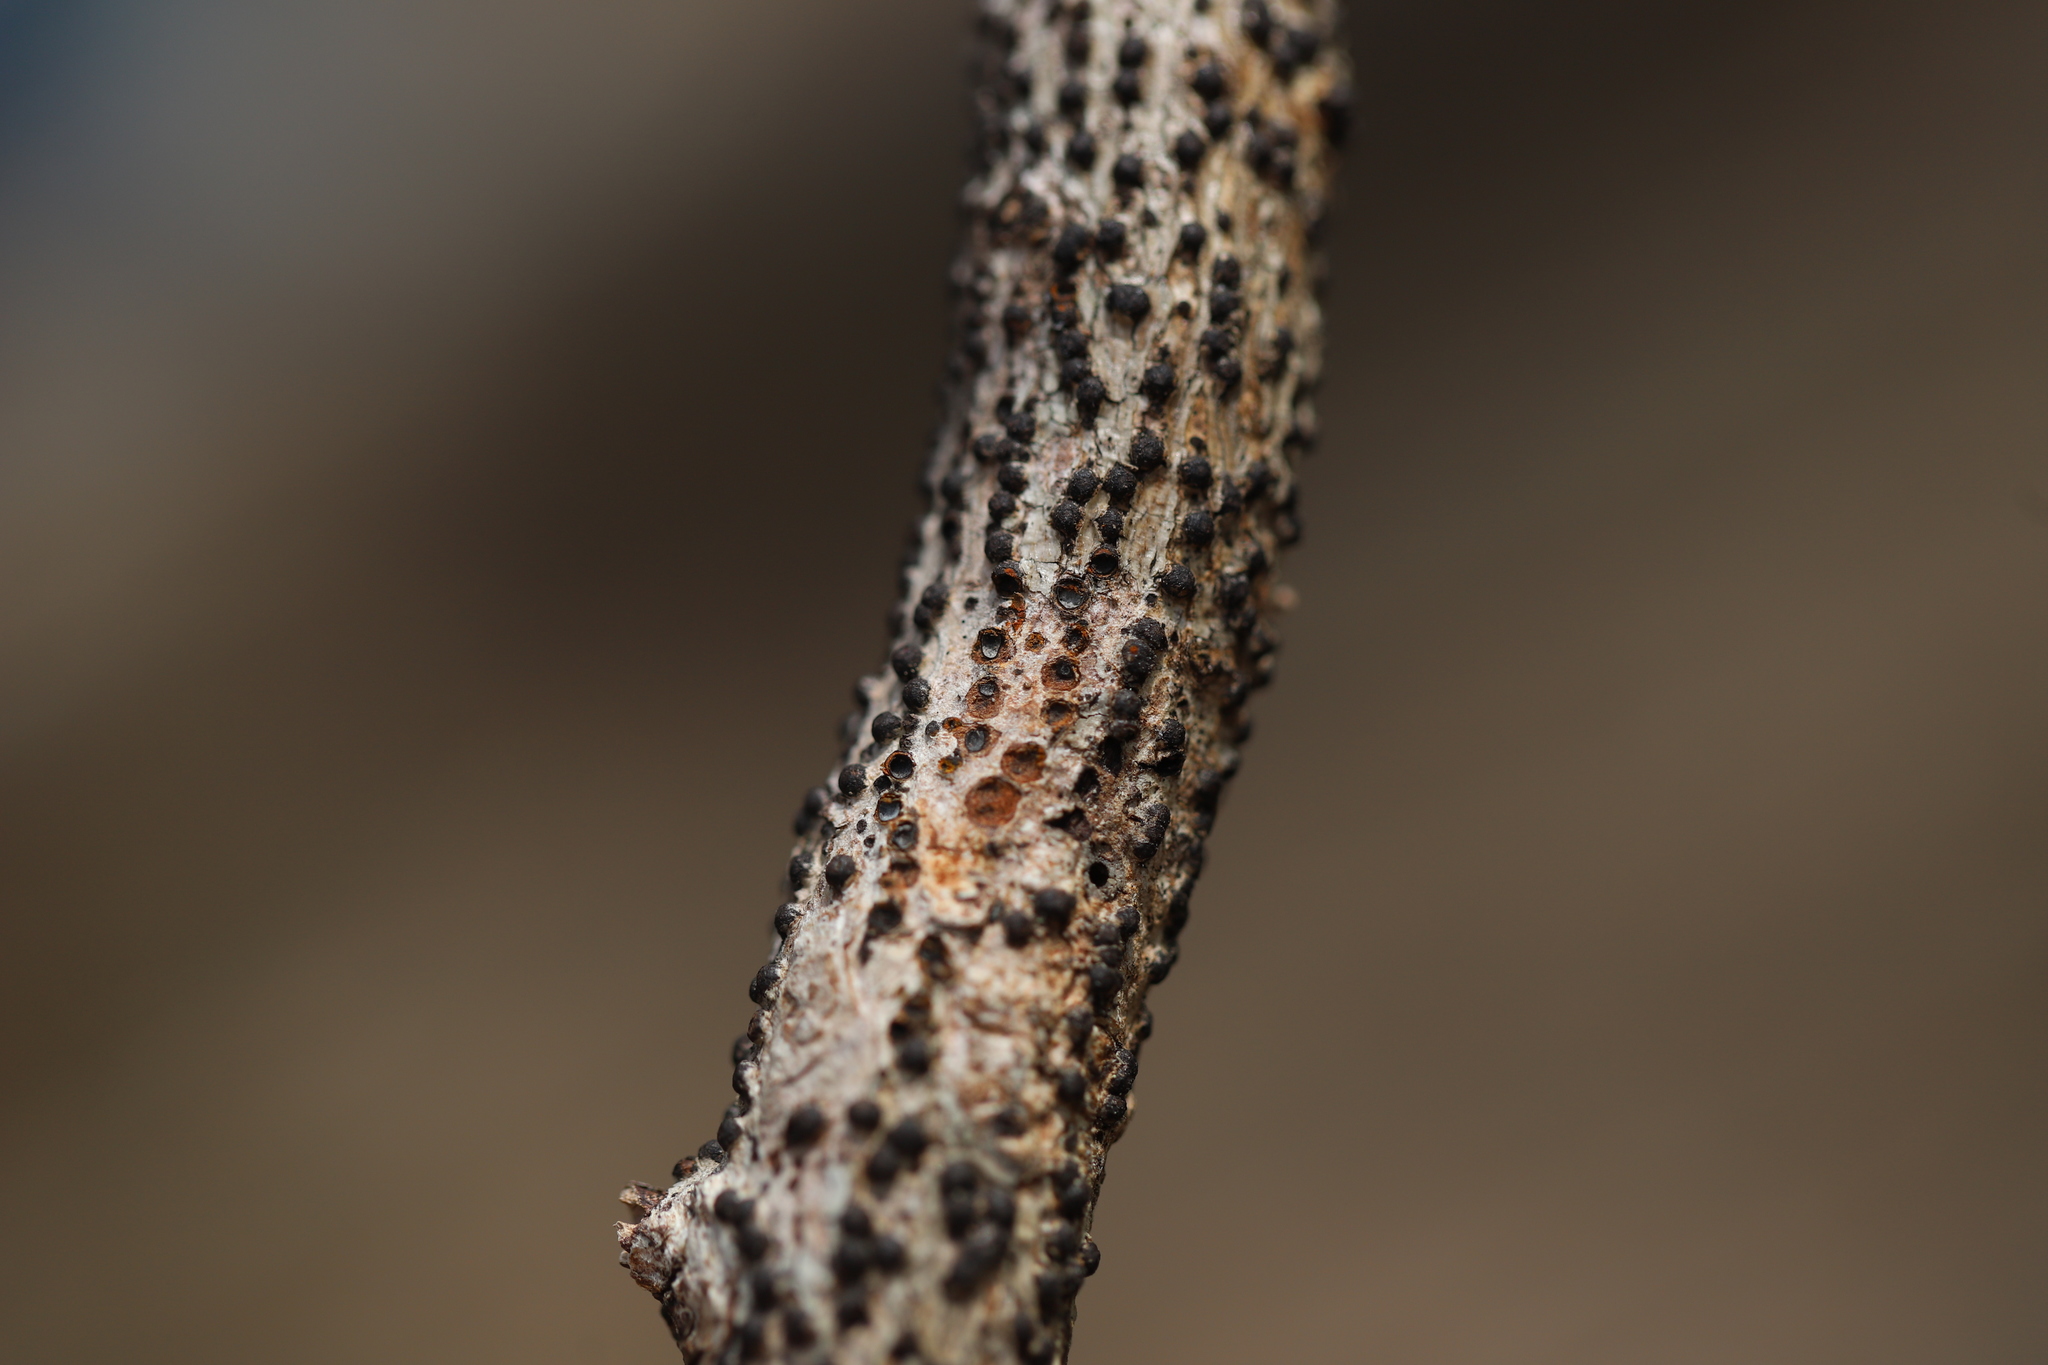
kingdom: Fungi
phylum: Ascomycota
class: Sordariomycetes
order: Xylariales
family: Lopadostomataceae
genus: Creosphaeria
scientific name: Creosphaeria sassafras
